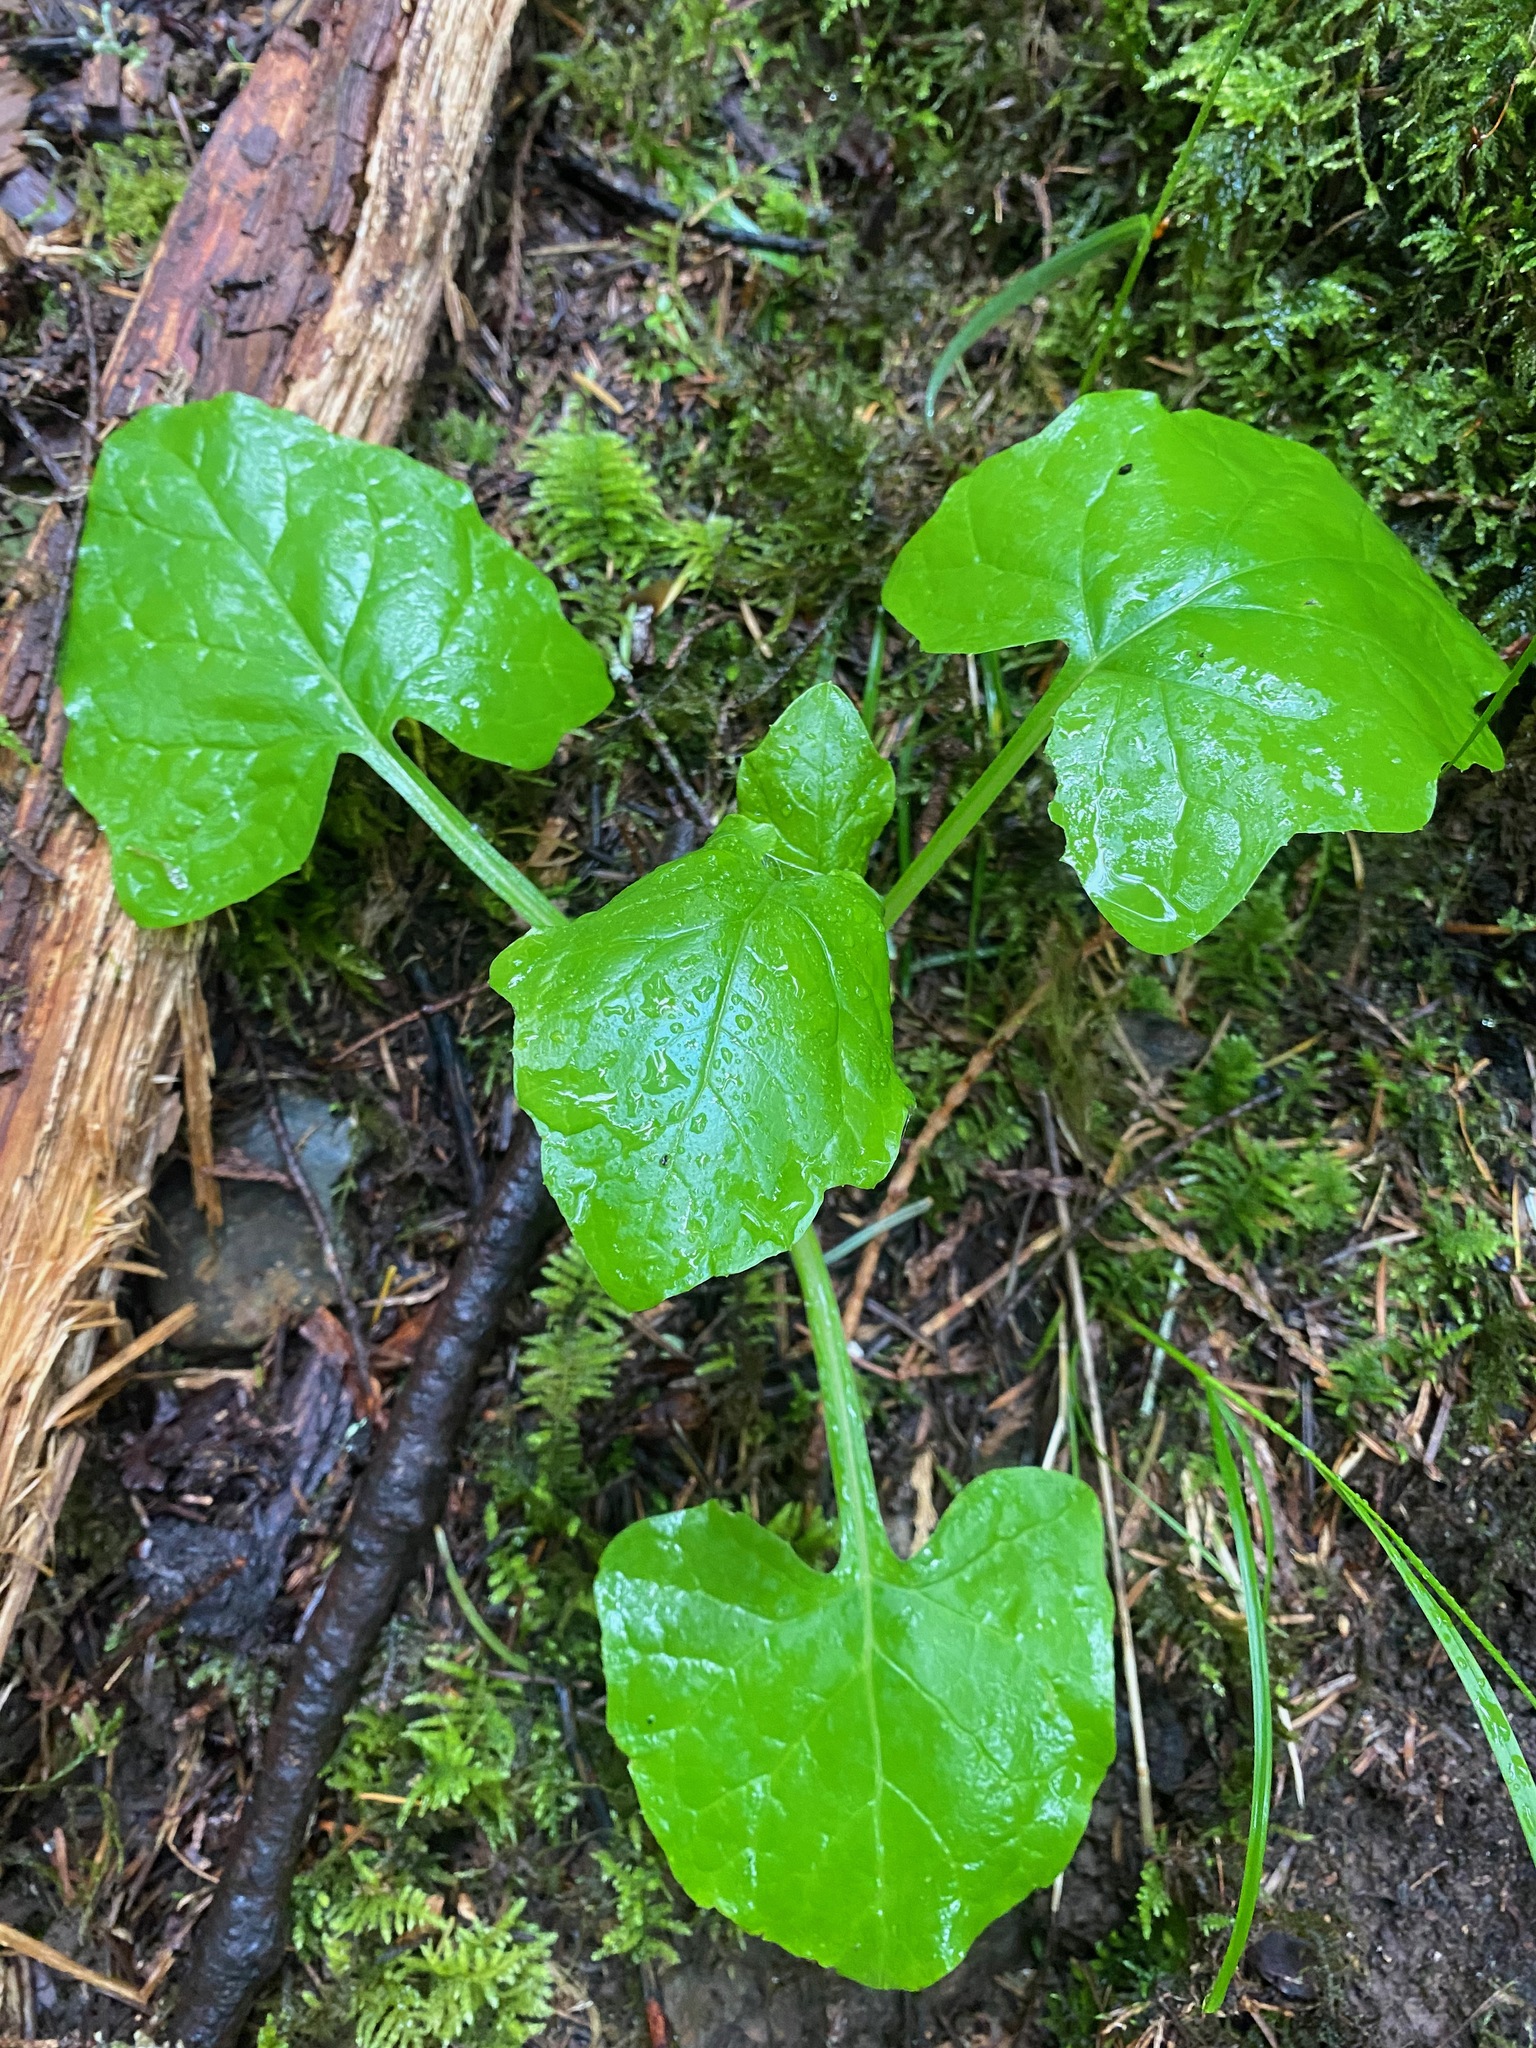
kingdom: Plantae
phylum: Tracheophyta
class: Magnoliopsida
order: Asterales
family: Asteraceae
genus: Adenocaulon
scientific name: Adenocaulon bicolor
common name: Trailplant
